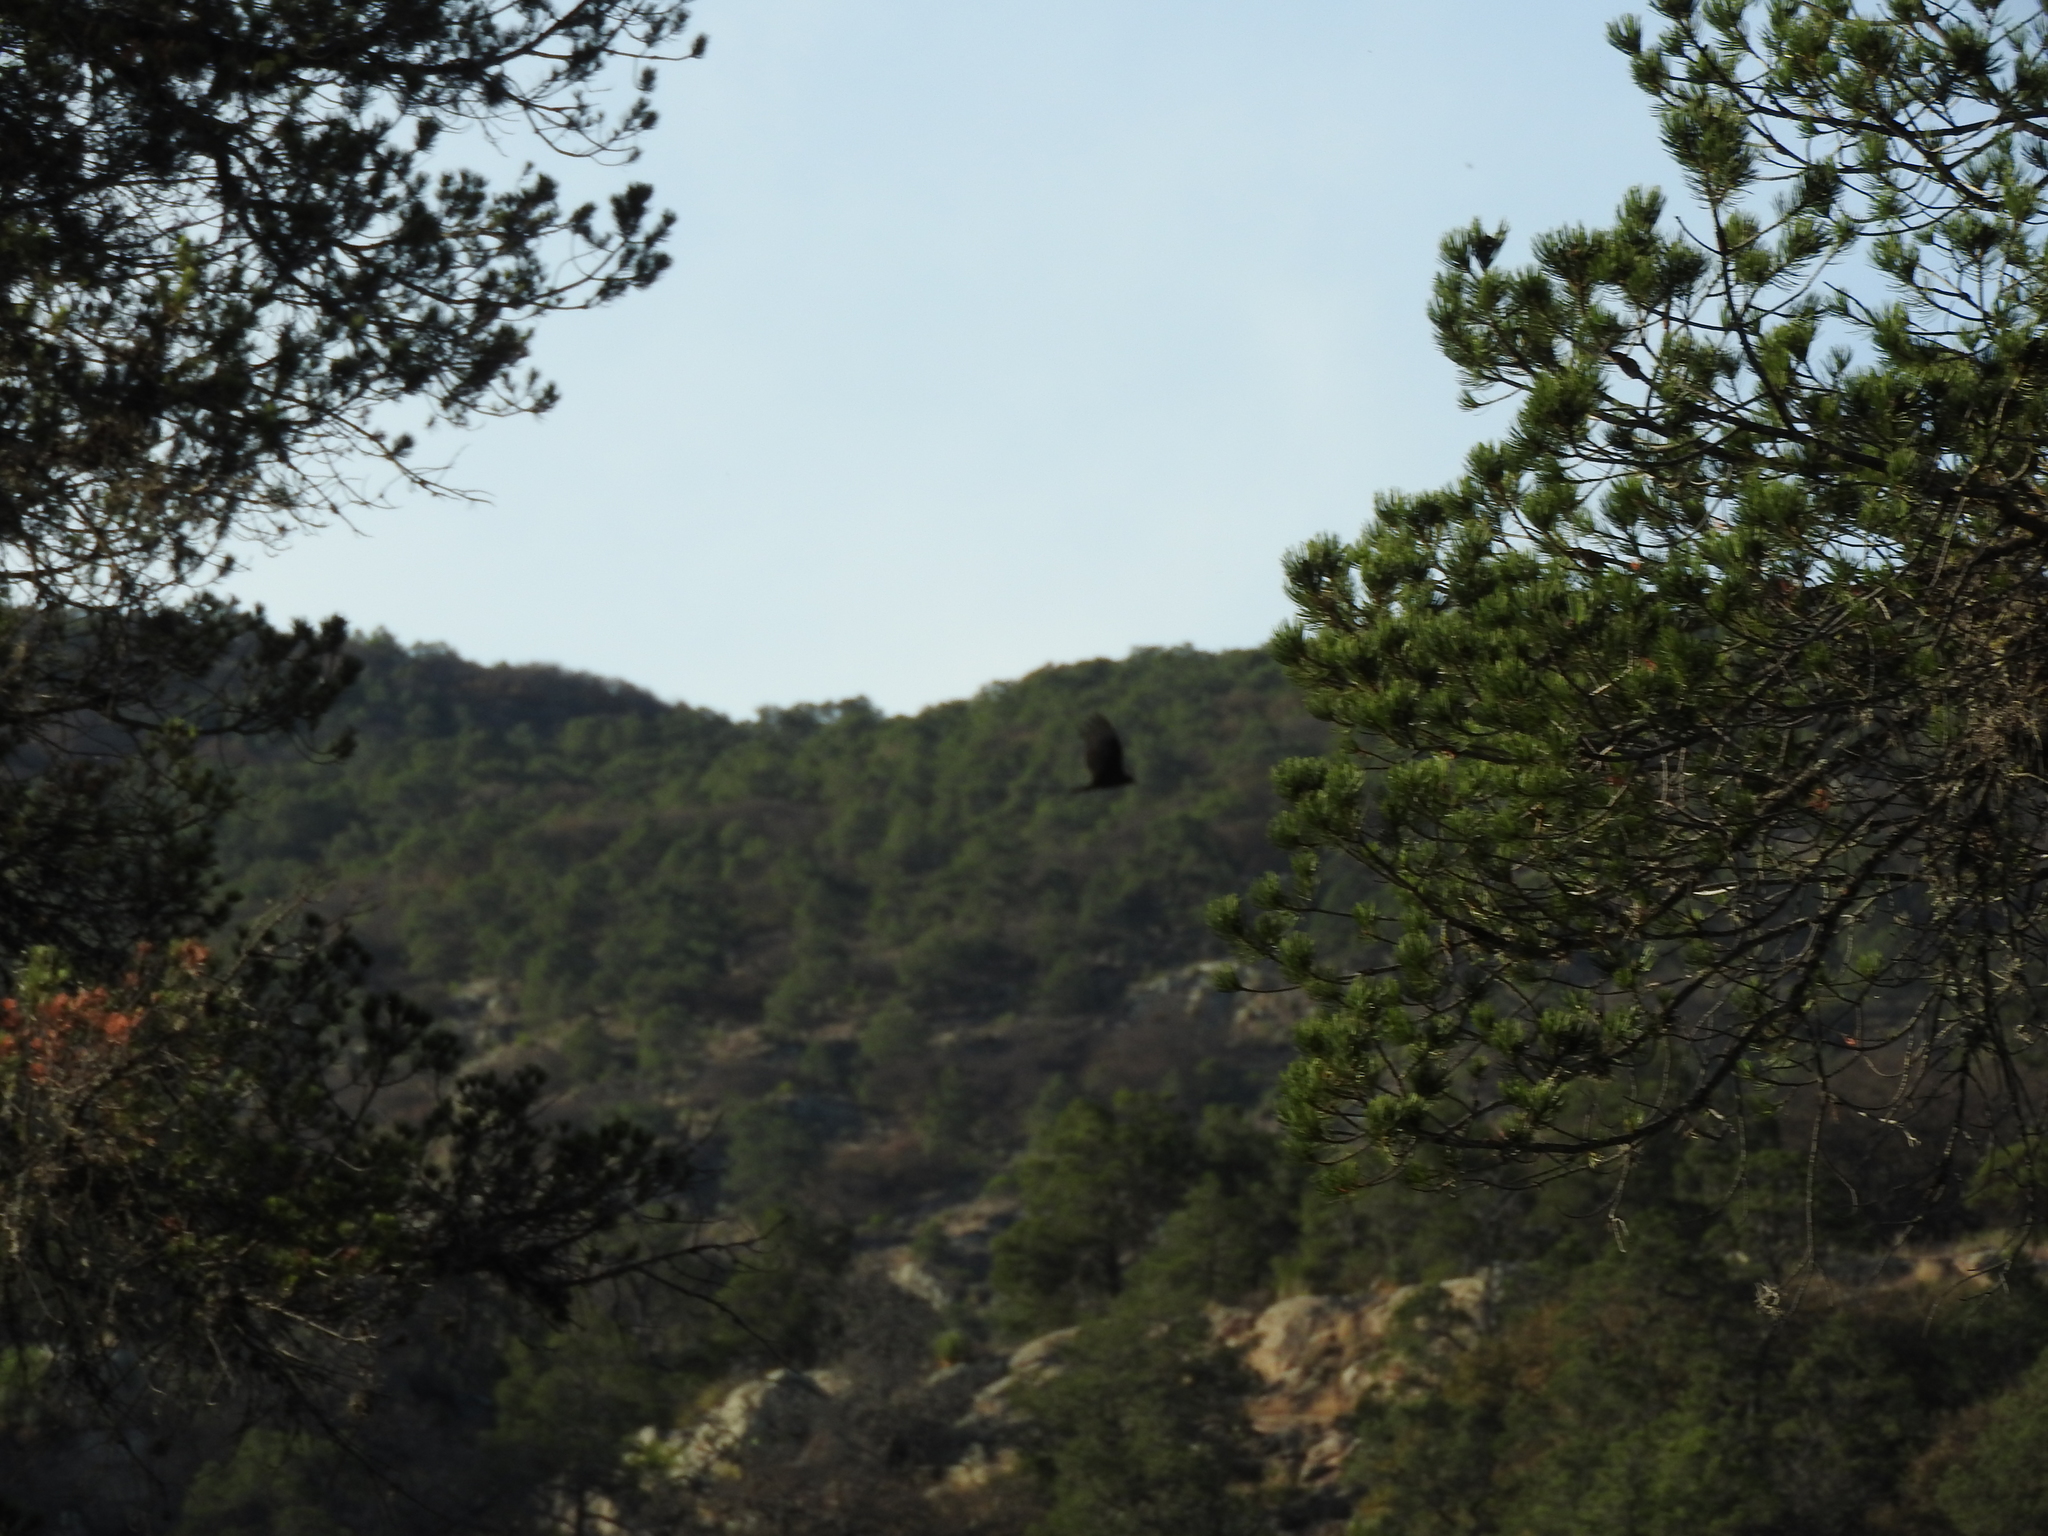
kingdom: Animalia
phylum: Chordata
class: Aves
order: Accipitriformes
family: Cathartidae
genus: Cathartes
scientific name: Cathartes aura
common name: Turkey vulture
